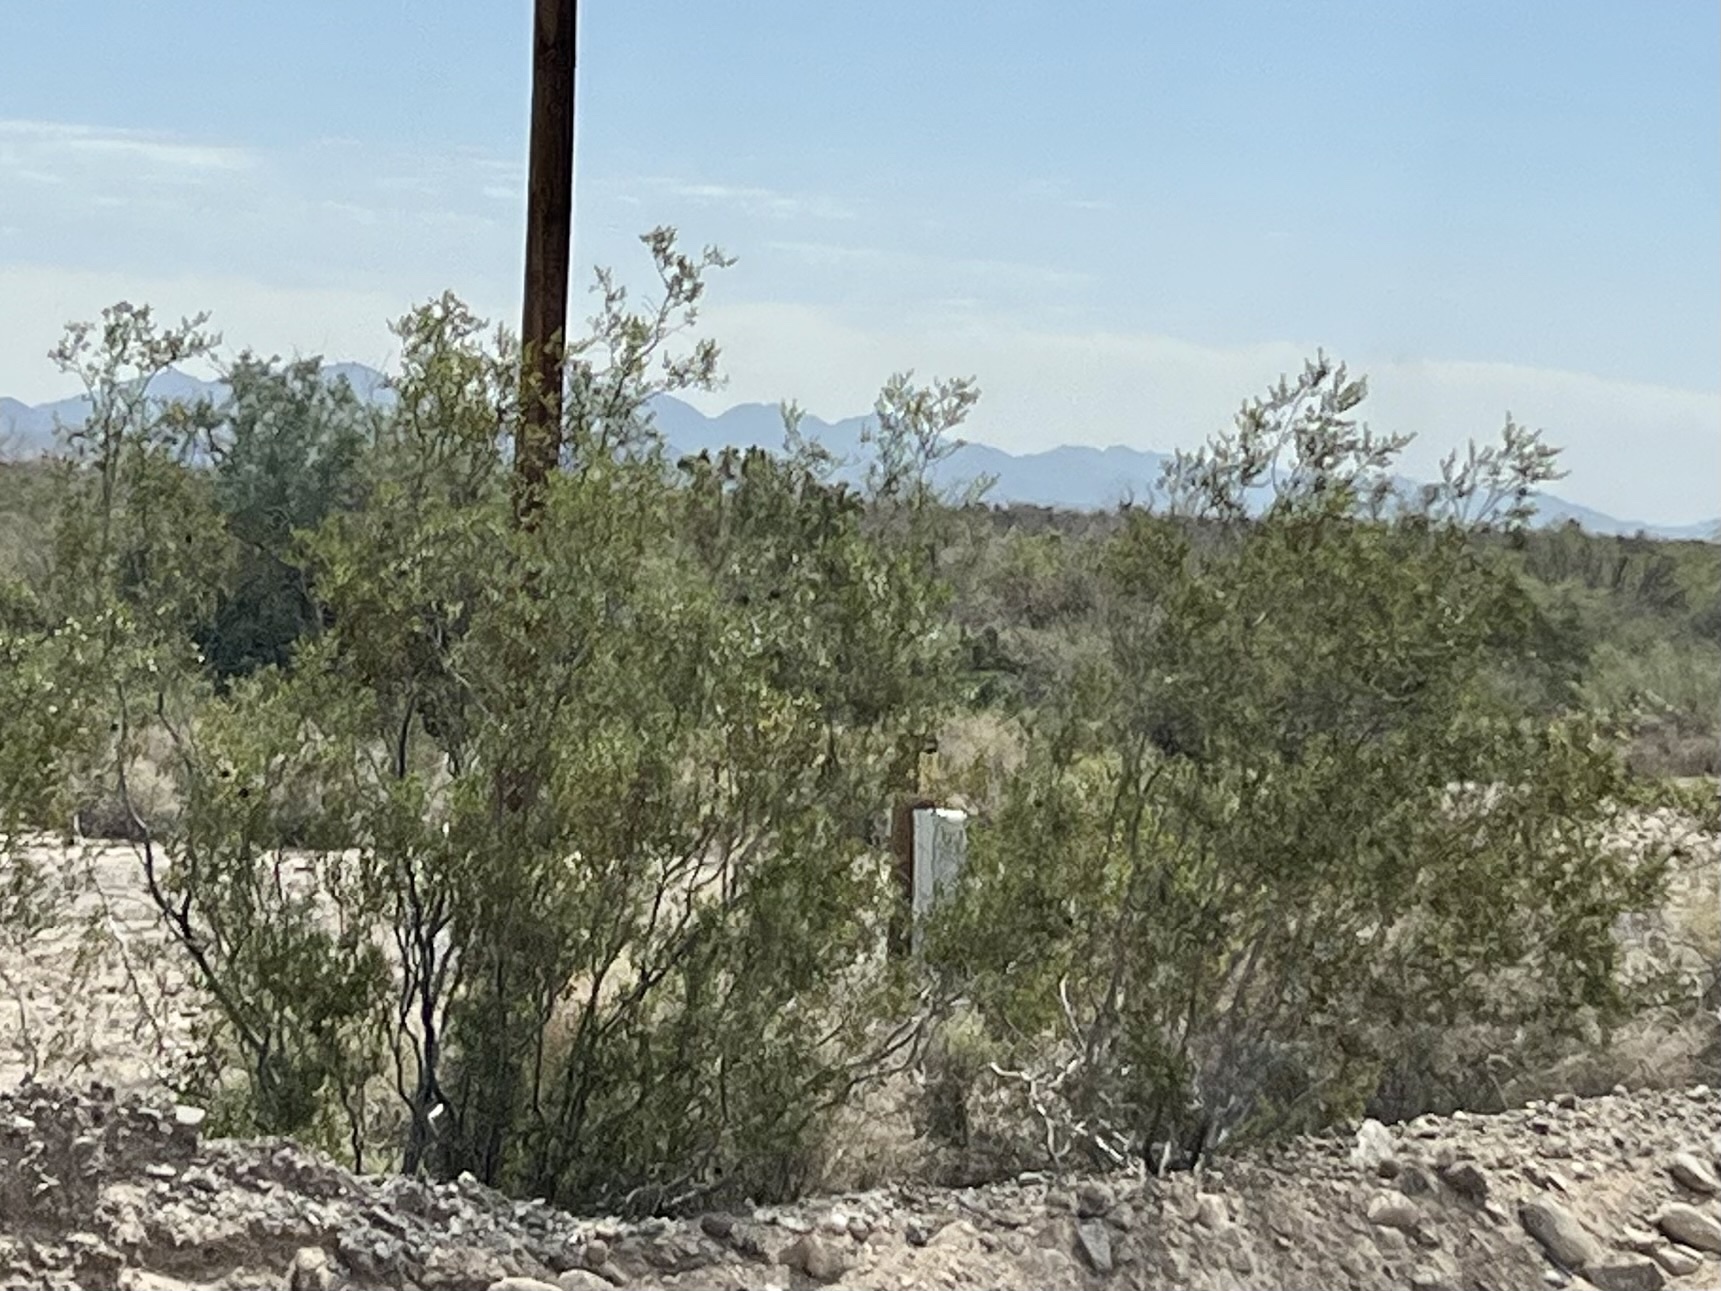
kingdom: Plantae
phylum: Tracheophyta
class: Magnoliopsida
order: Zygophyllales
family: Zygophyllaceae
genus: Larrea
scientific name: Larrea tridentata
